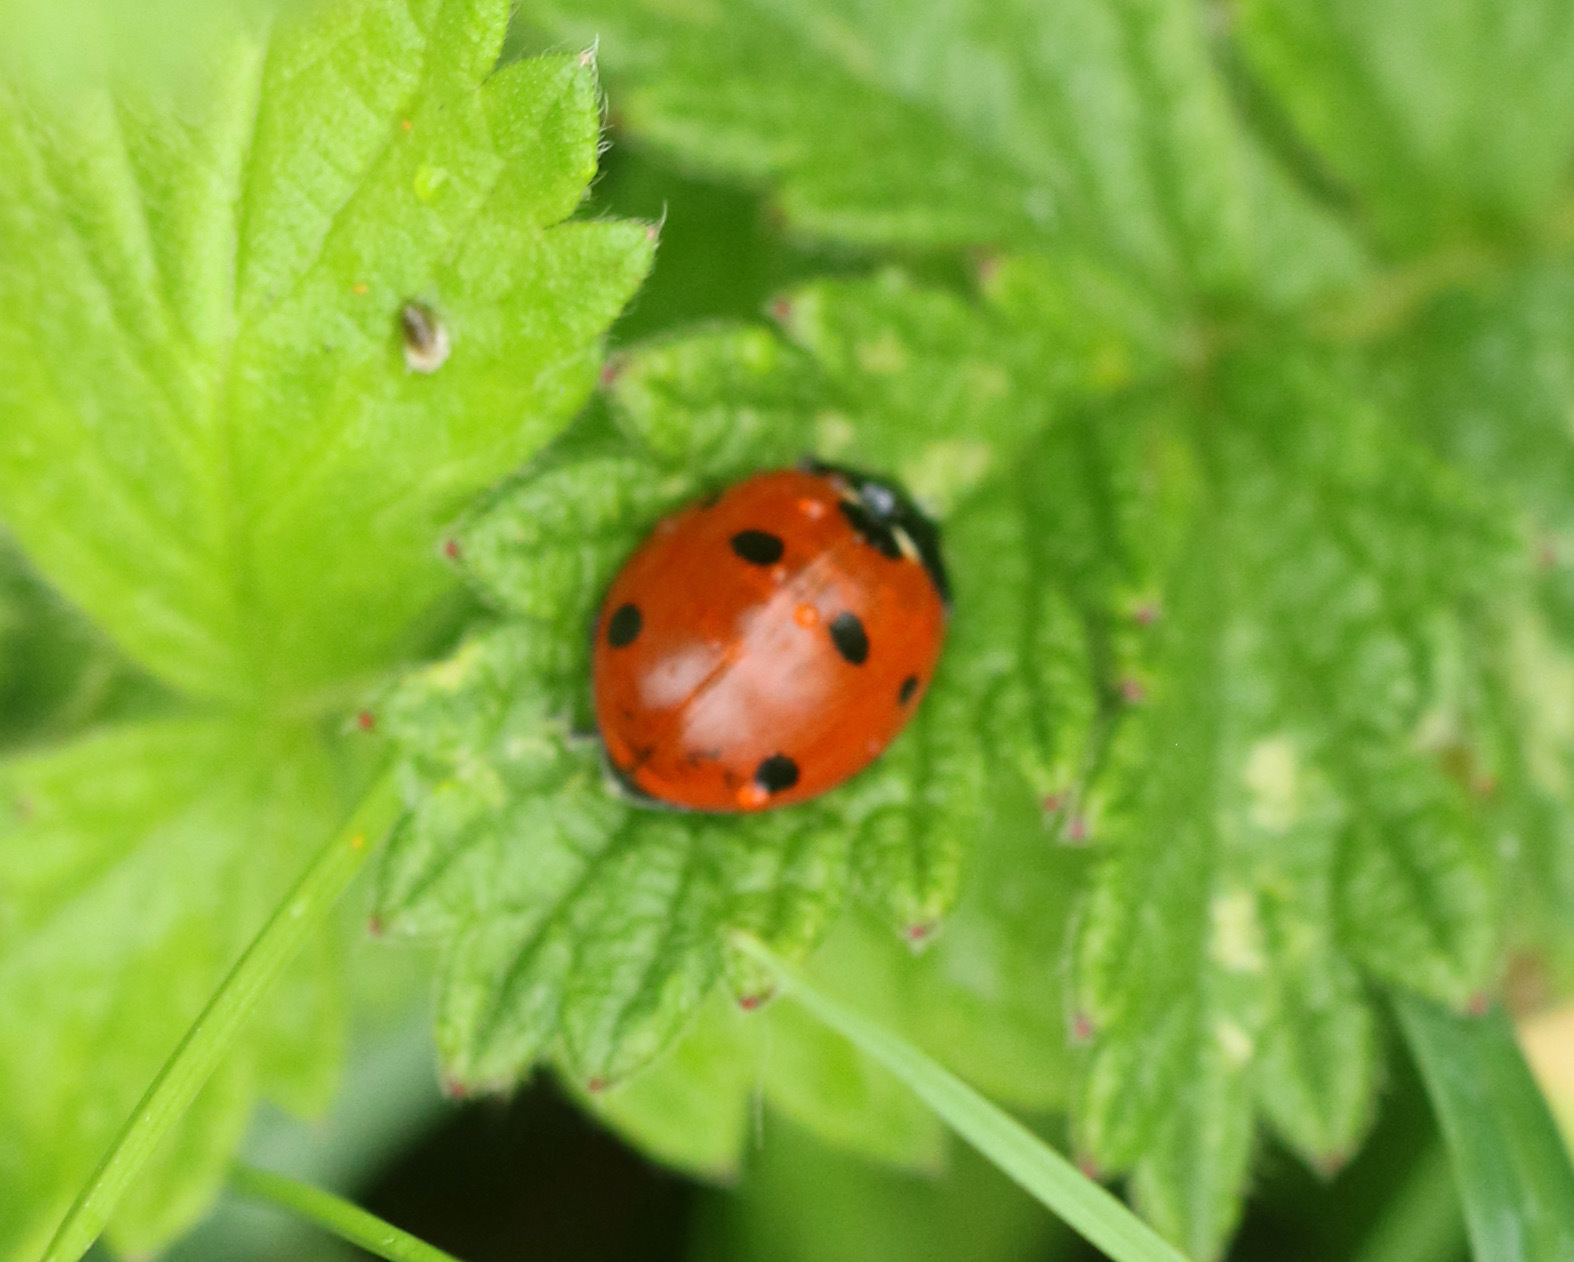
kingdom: Animalia
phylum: Arthropoda
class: Insecta
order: Coleoptera
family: Coccinellidae
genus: Coccinella
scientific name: Coccinella septempunctata
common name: Sevenspotted lady beetle
